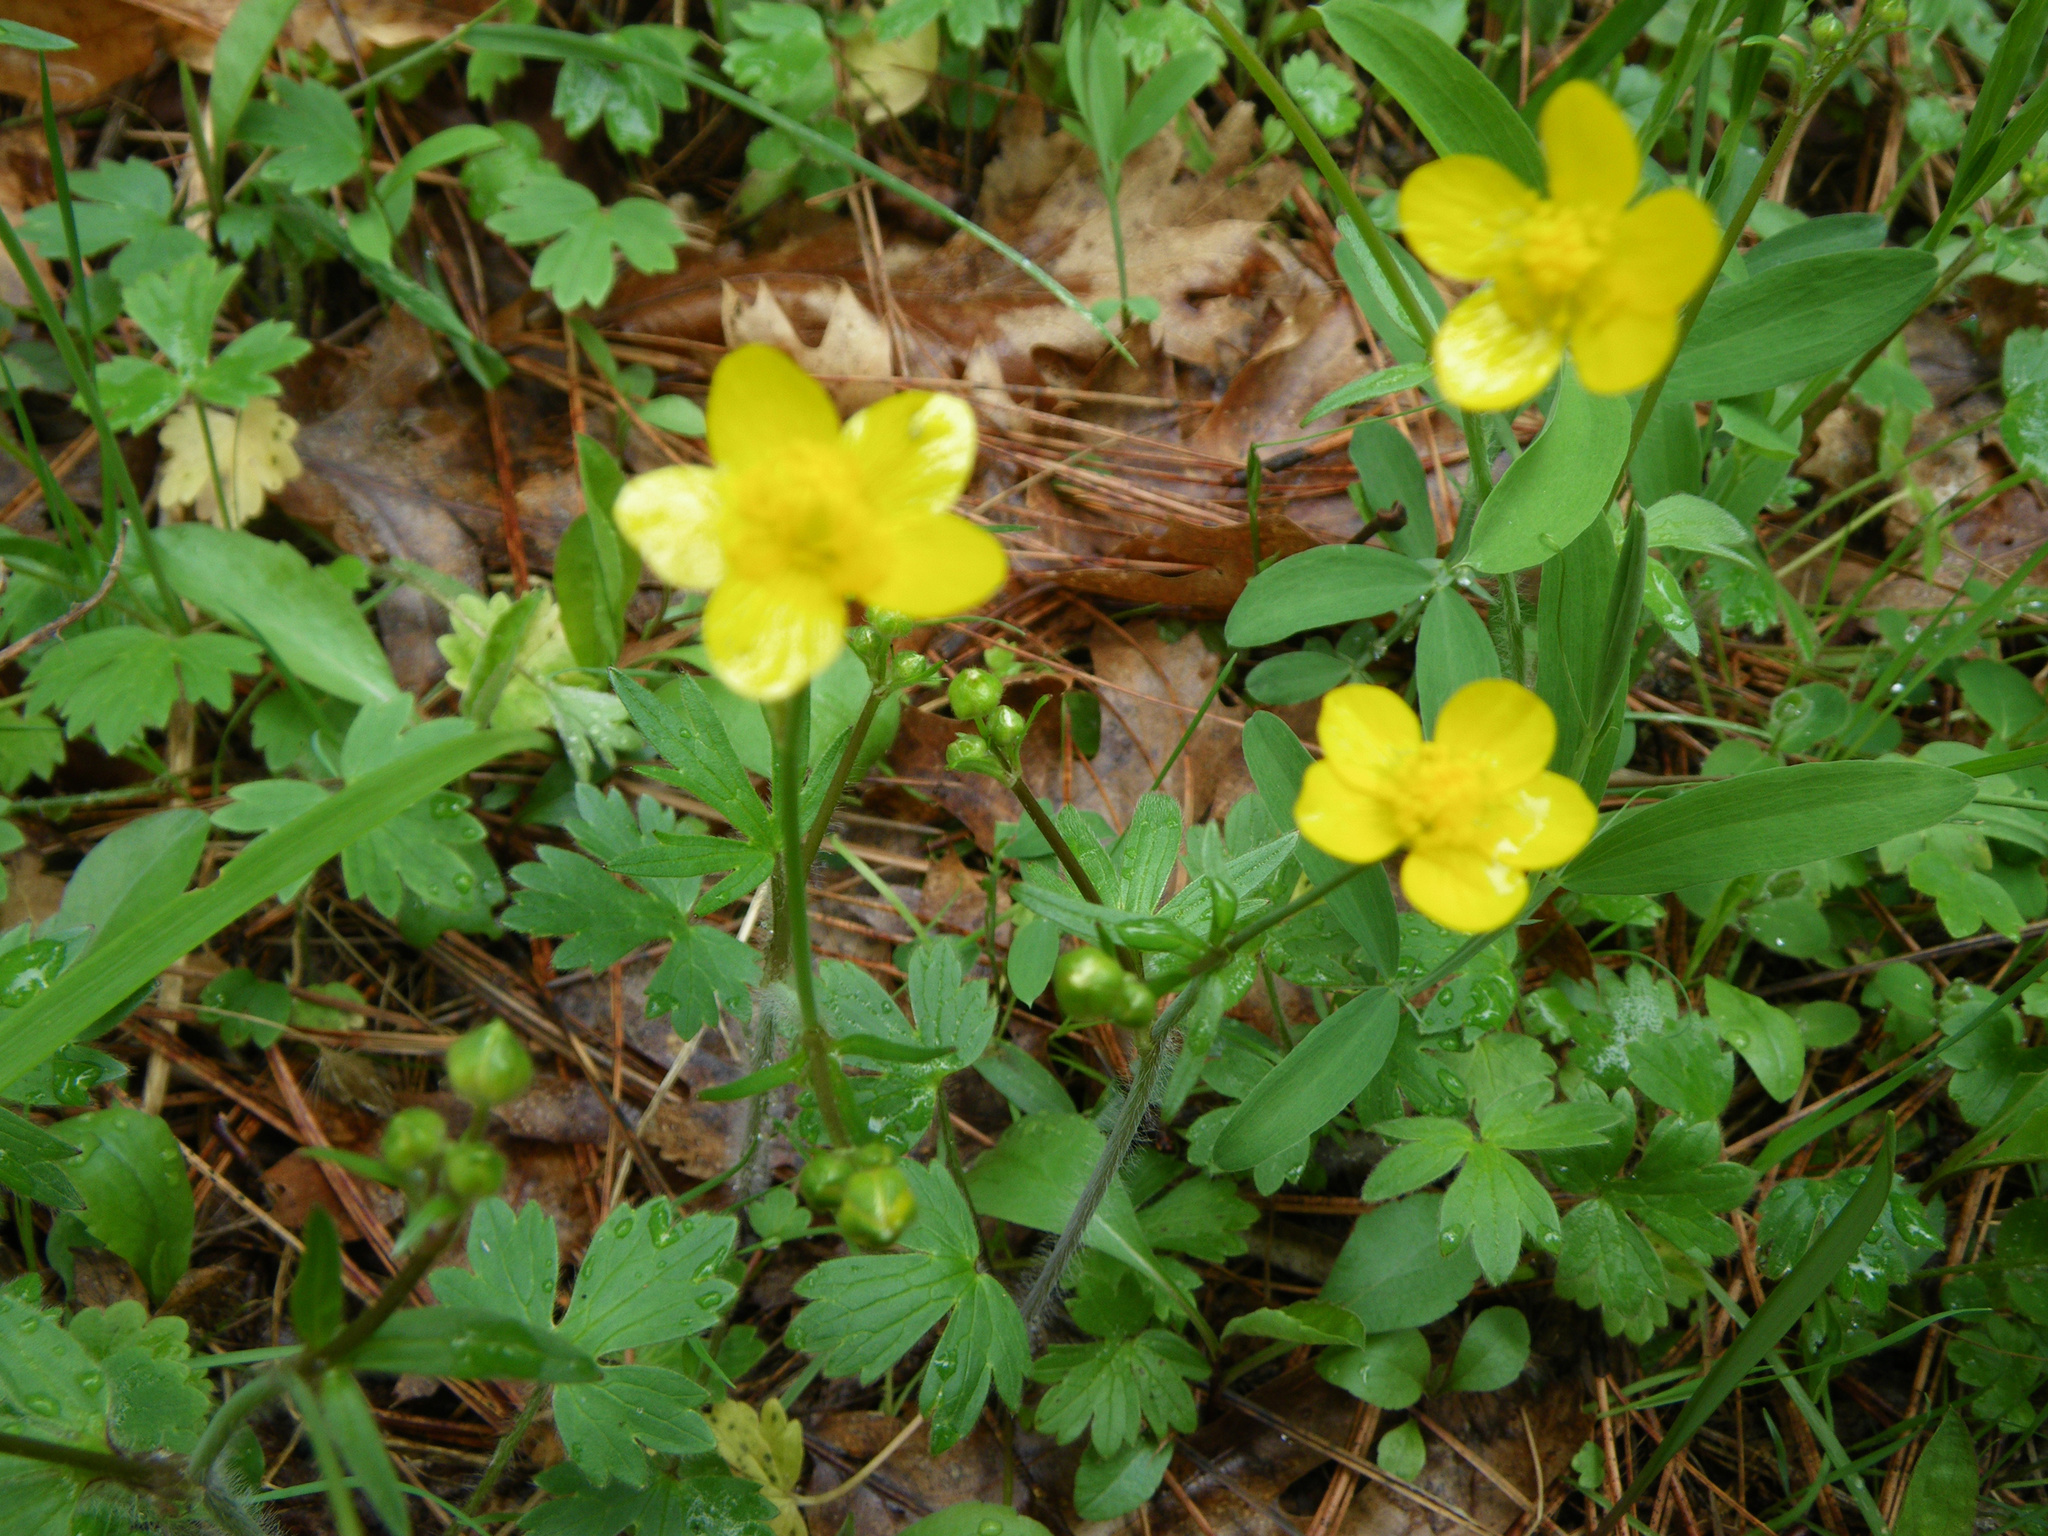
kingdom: Plantae
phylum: Tracheophyta
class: Magnoliopsida
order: Ranunculales
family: Ranunculaceae
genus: Ranunculus
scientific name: Ranunculus occidentalis
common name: Western buttercup
